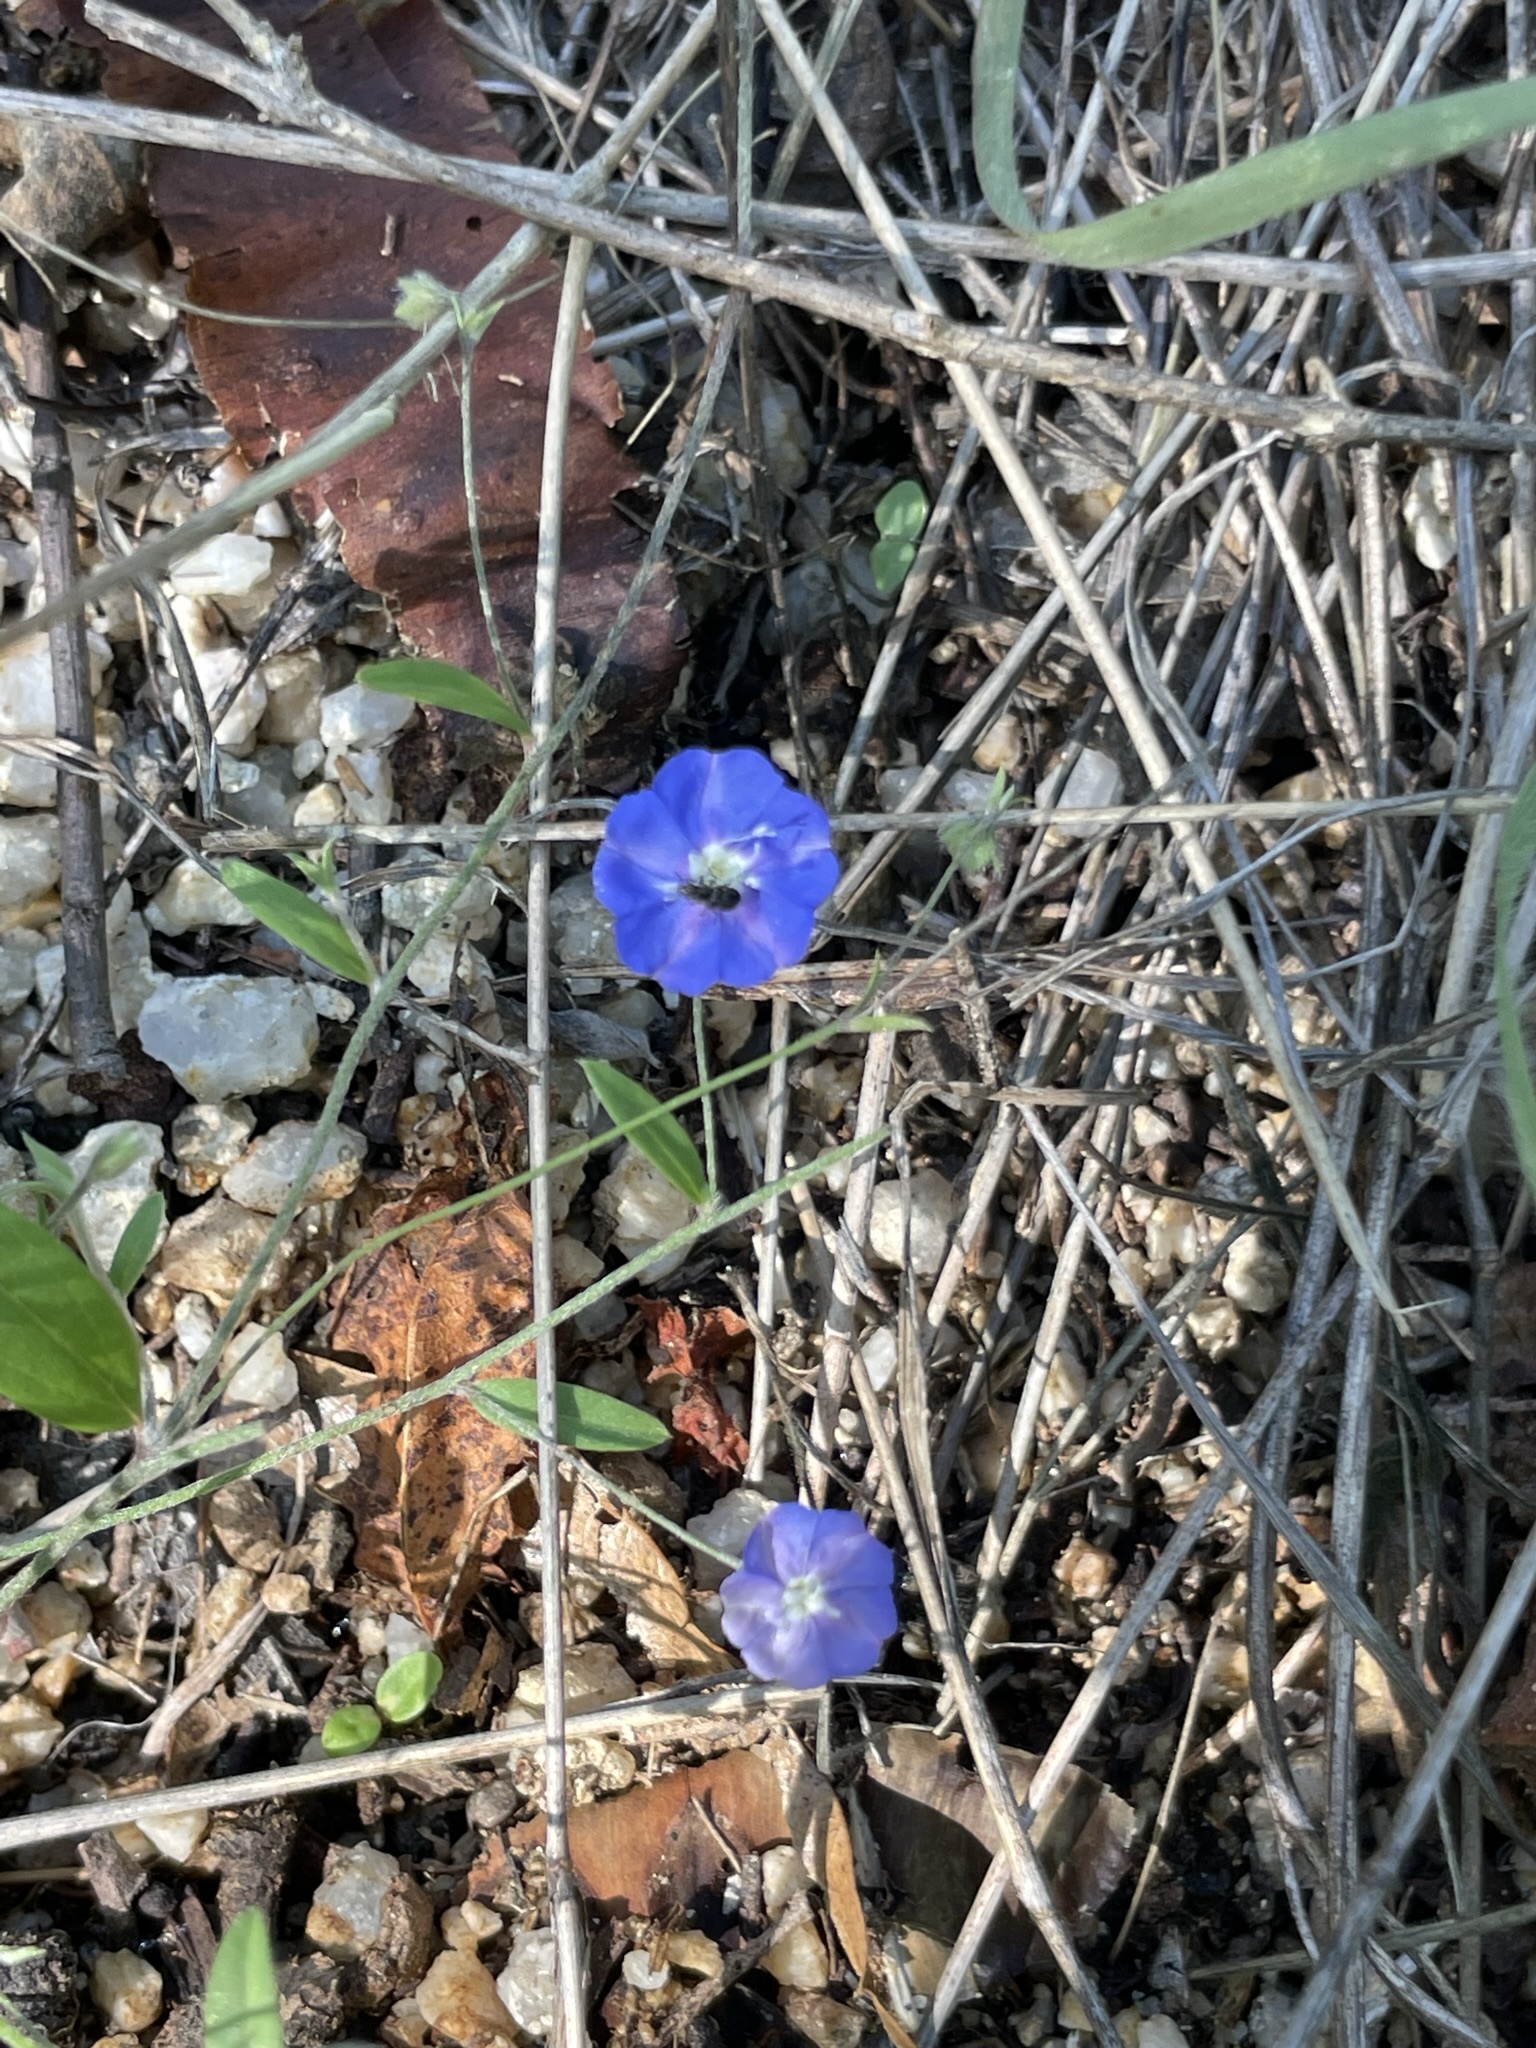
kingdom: Plantae
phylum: Tracheophyta
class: Magnoliopsida
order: Solanales
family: Convolvulaceae
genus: Evolvulus
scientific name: Evolvulus alsinoides
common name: Slender dwarf morning-glory
